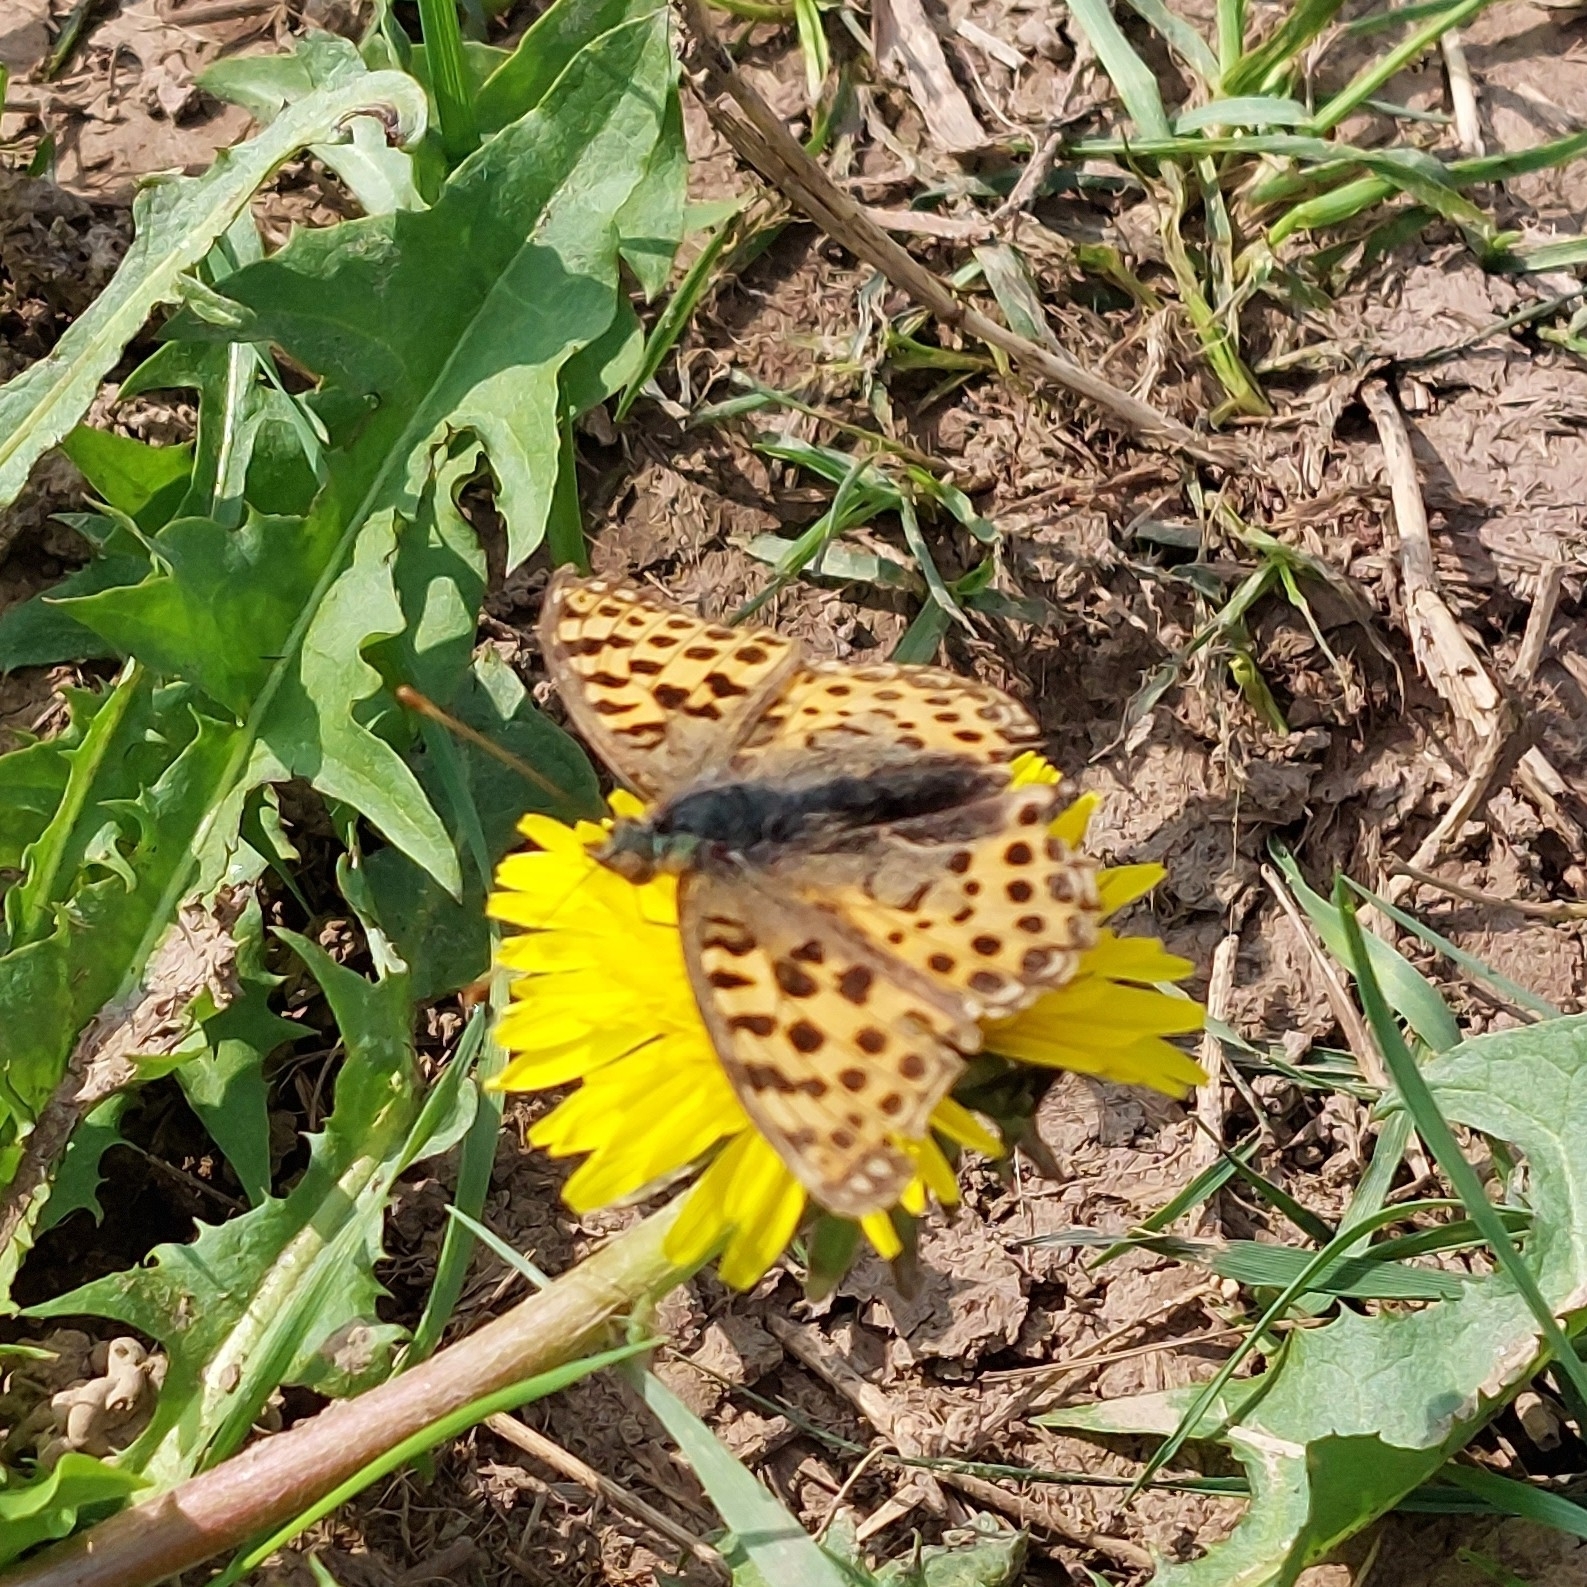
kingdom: Animalia
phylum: Arthropoda
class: Insecta
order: Lepidoptera
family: Nymphalidae
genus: Issoria
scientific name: Issoria lathonia
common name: Queen of spain fritillary
